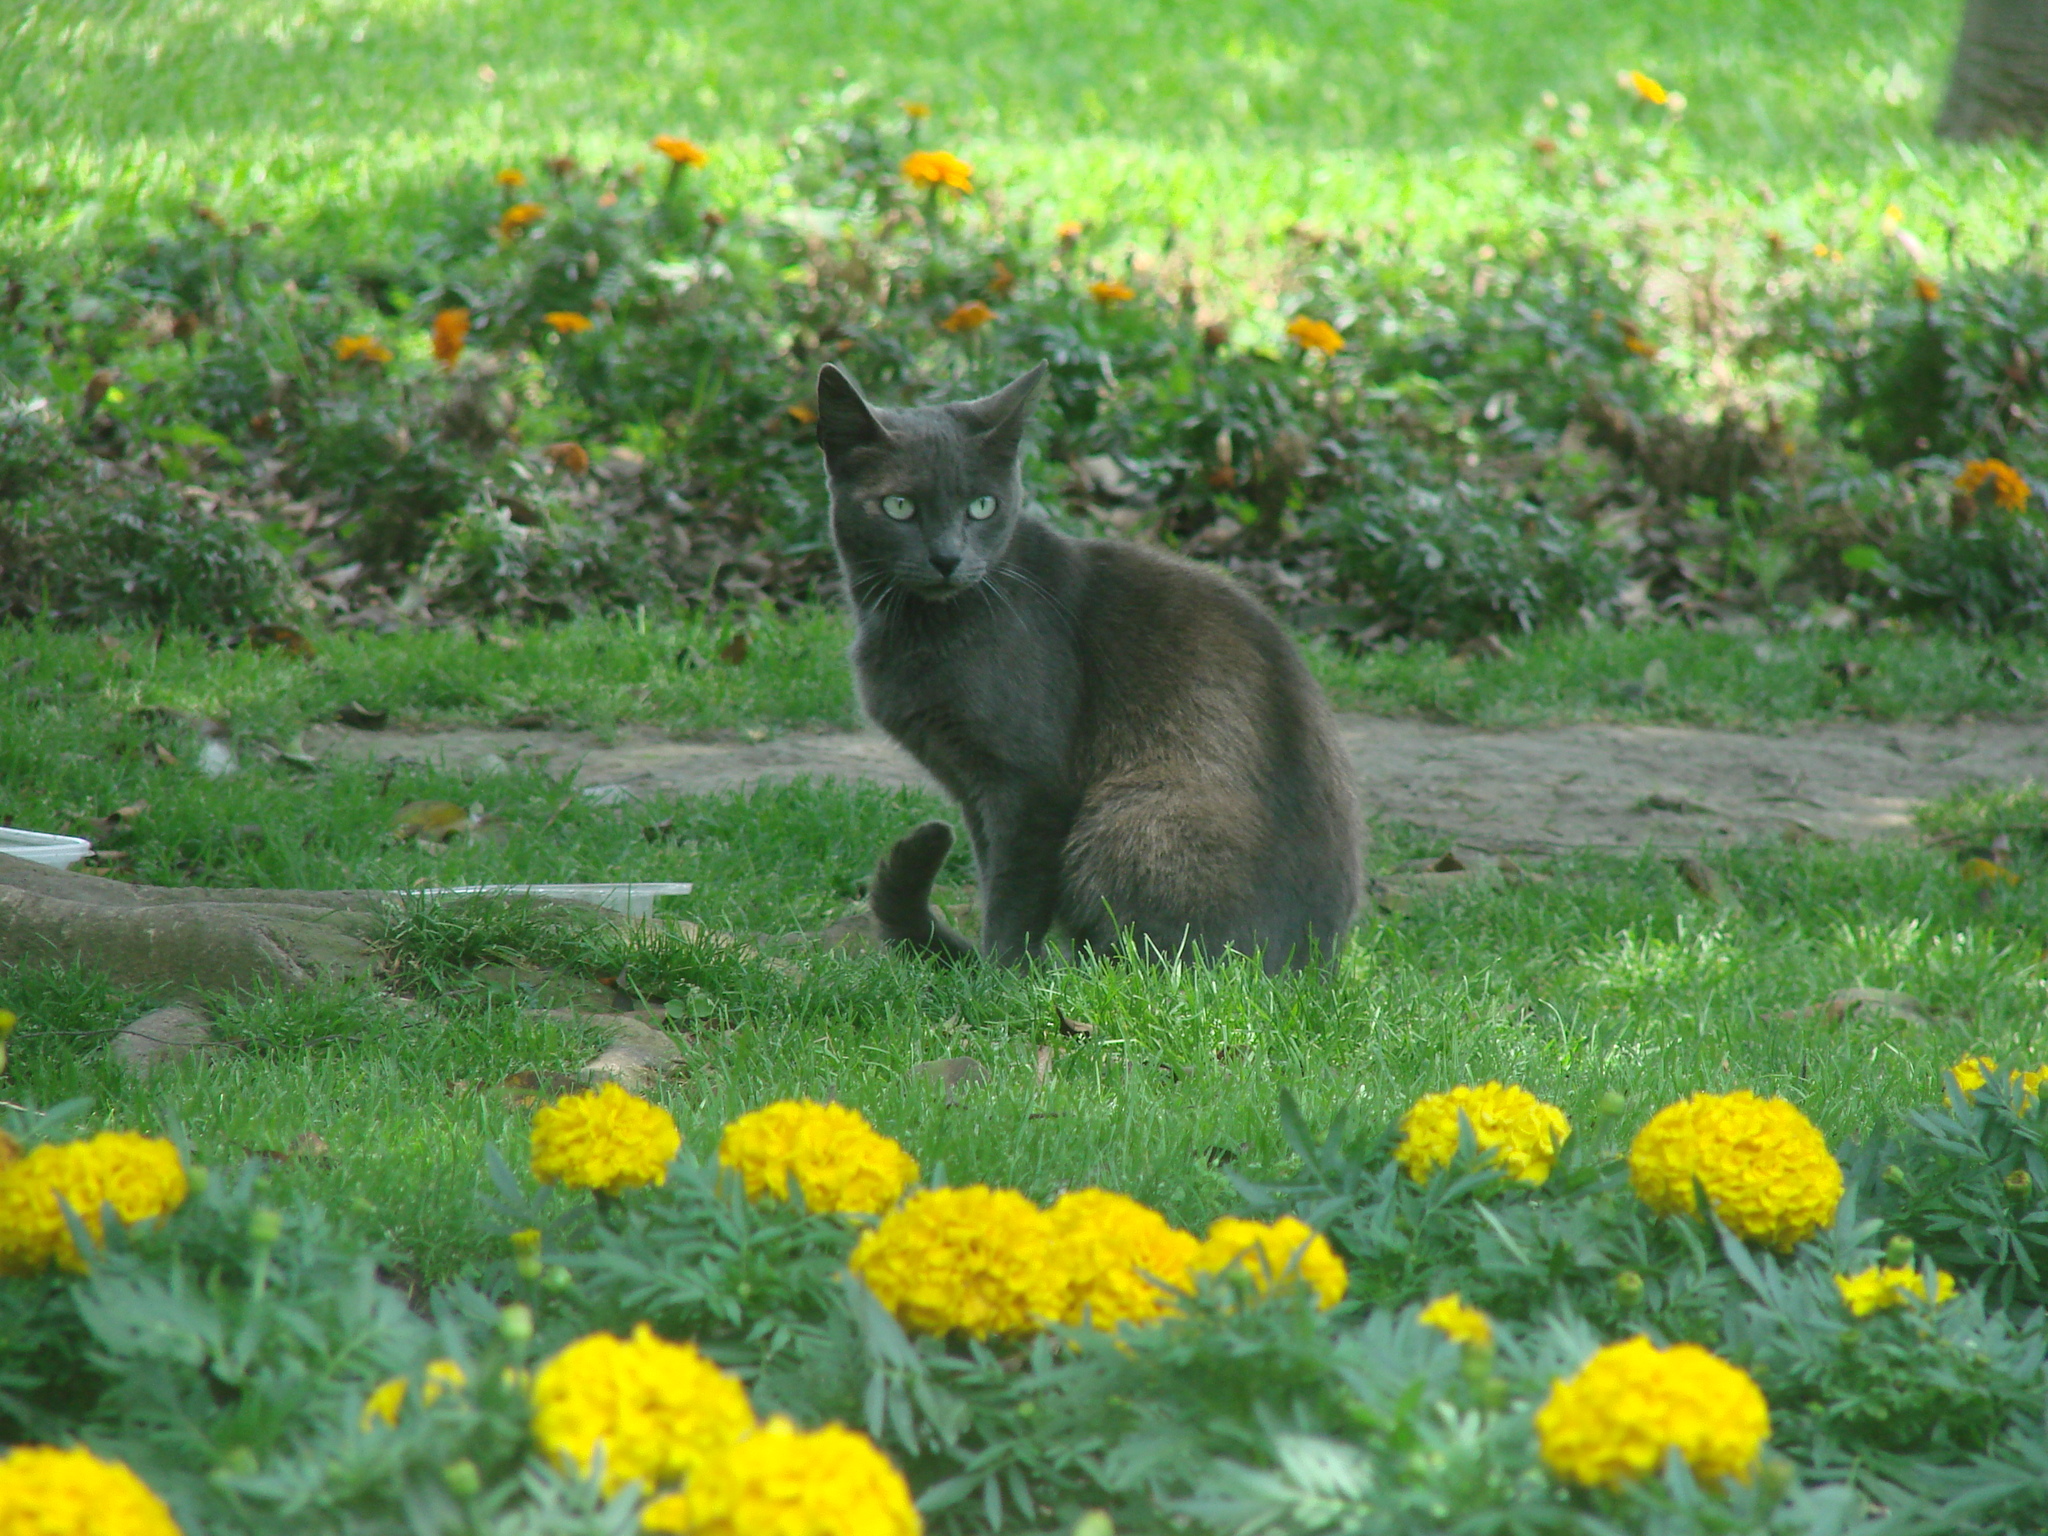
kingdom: Animalia
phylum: Chordata
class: Mammalia
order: Carnivora
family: Felidae
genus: Felis
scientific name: Felis catus
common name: Domestic cat
